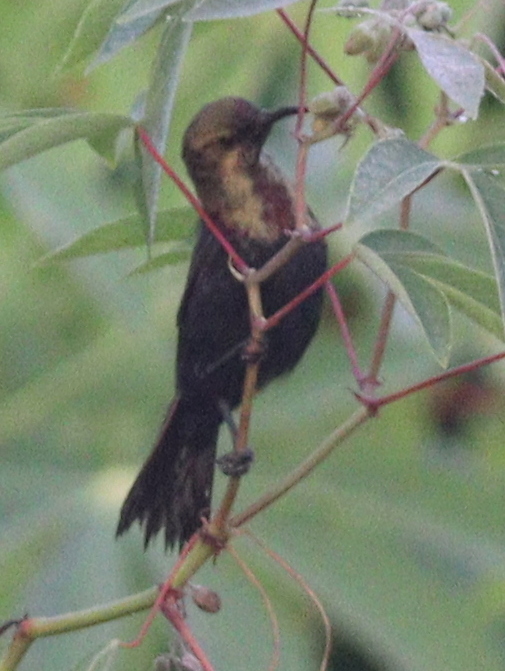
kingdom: Animalia
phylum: Chordata
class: Aves
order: Passeriformes
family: Nectariniidae
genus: Cinnyris
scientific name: Cinnyris cupreus
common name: Copper sunbird
